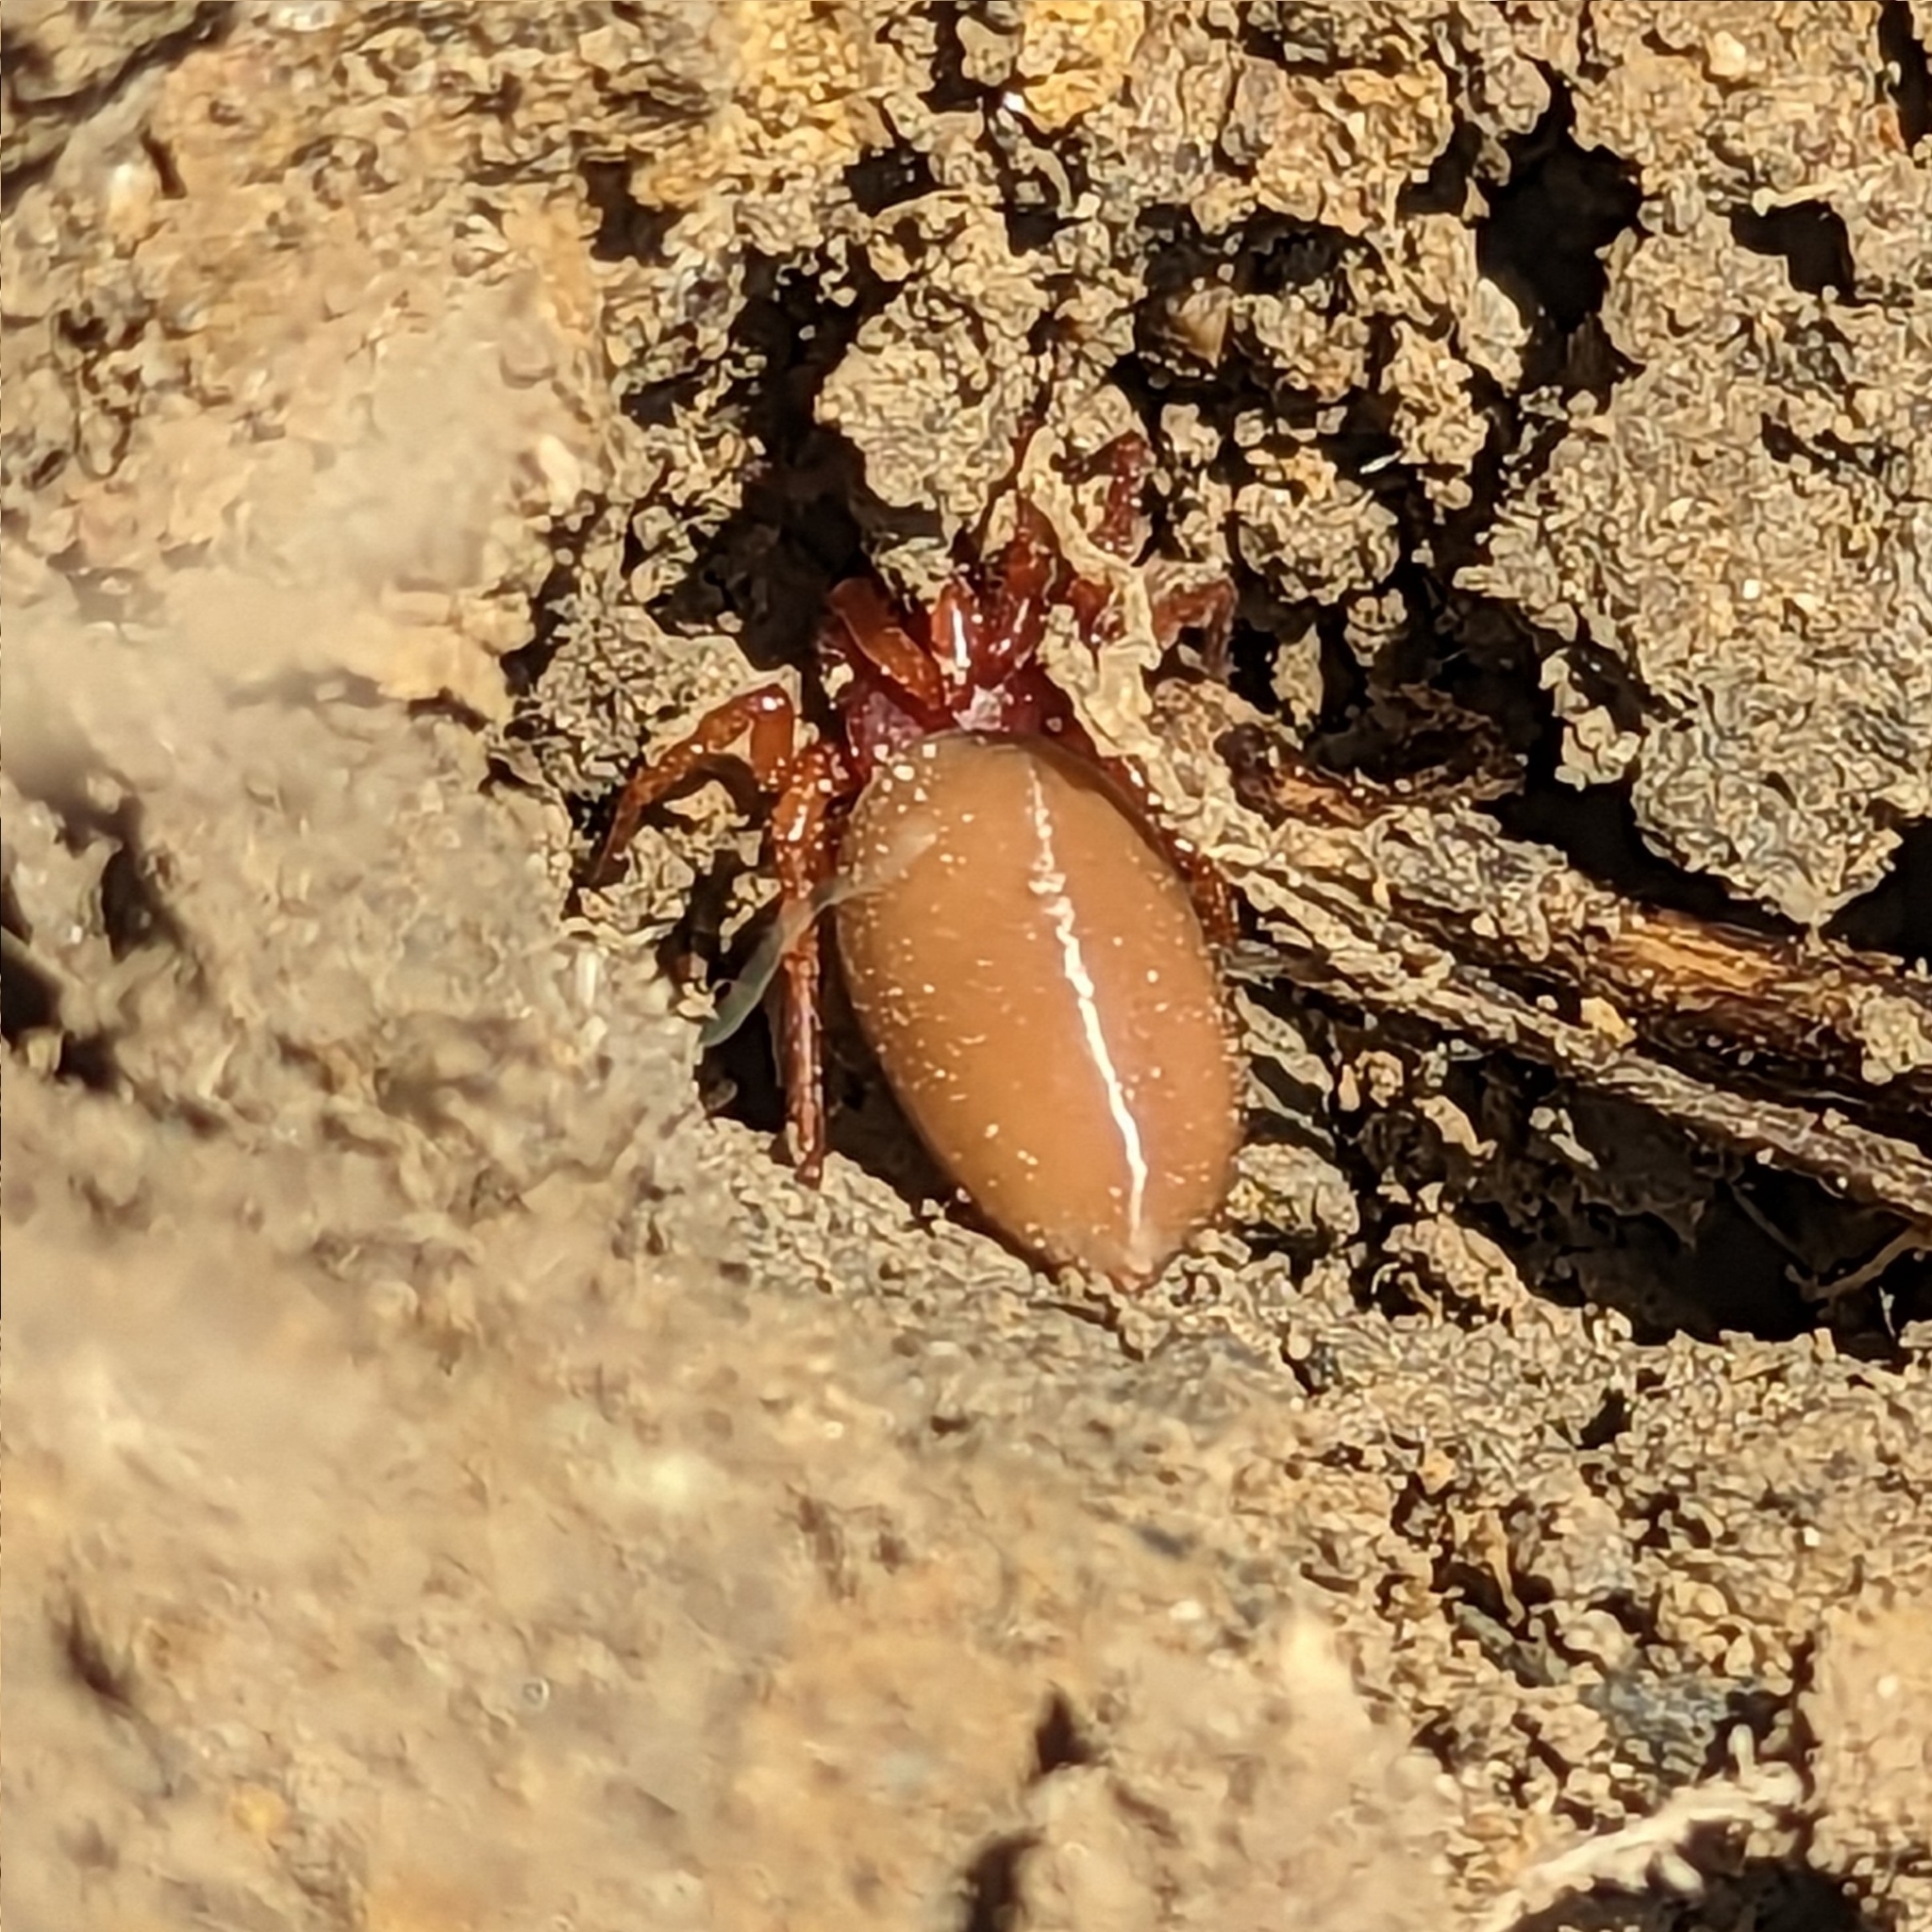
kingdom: Animalia
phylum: Arthropoda
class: Arachnida
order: Araneae
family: Dysderidae
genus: Dysdera
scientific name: Dysdera crocata
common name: Woodlouse spider
